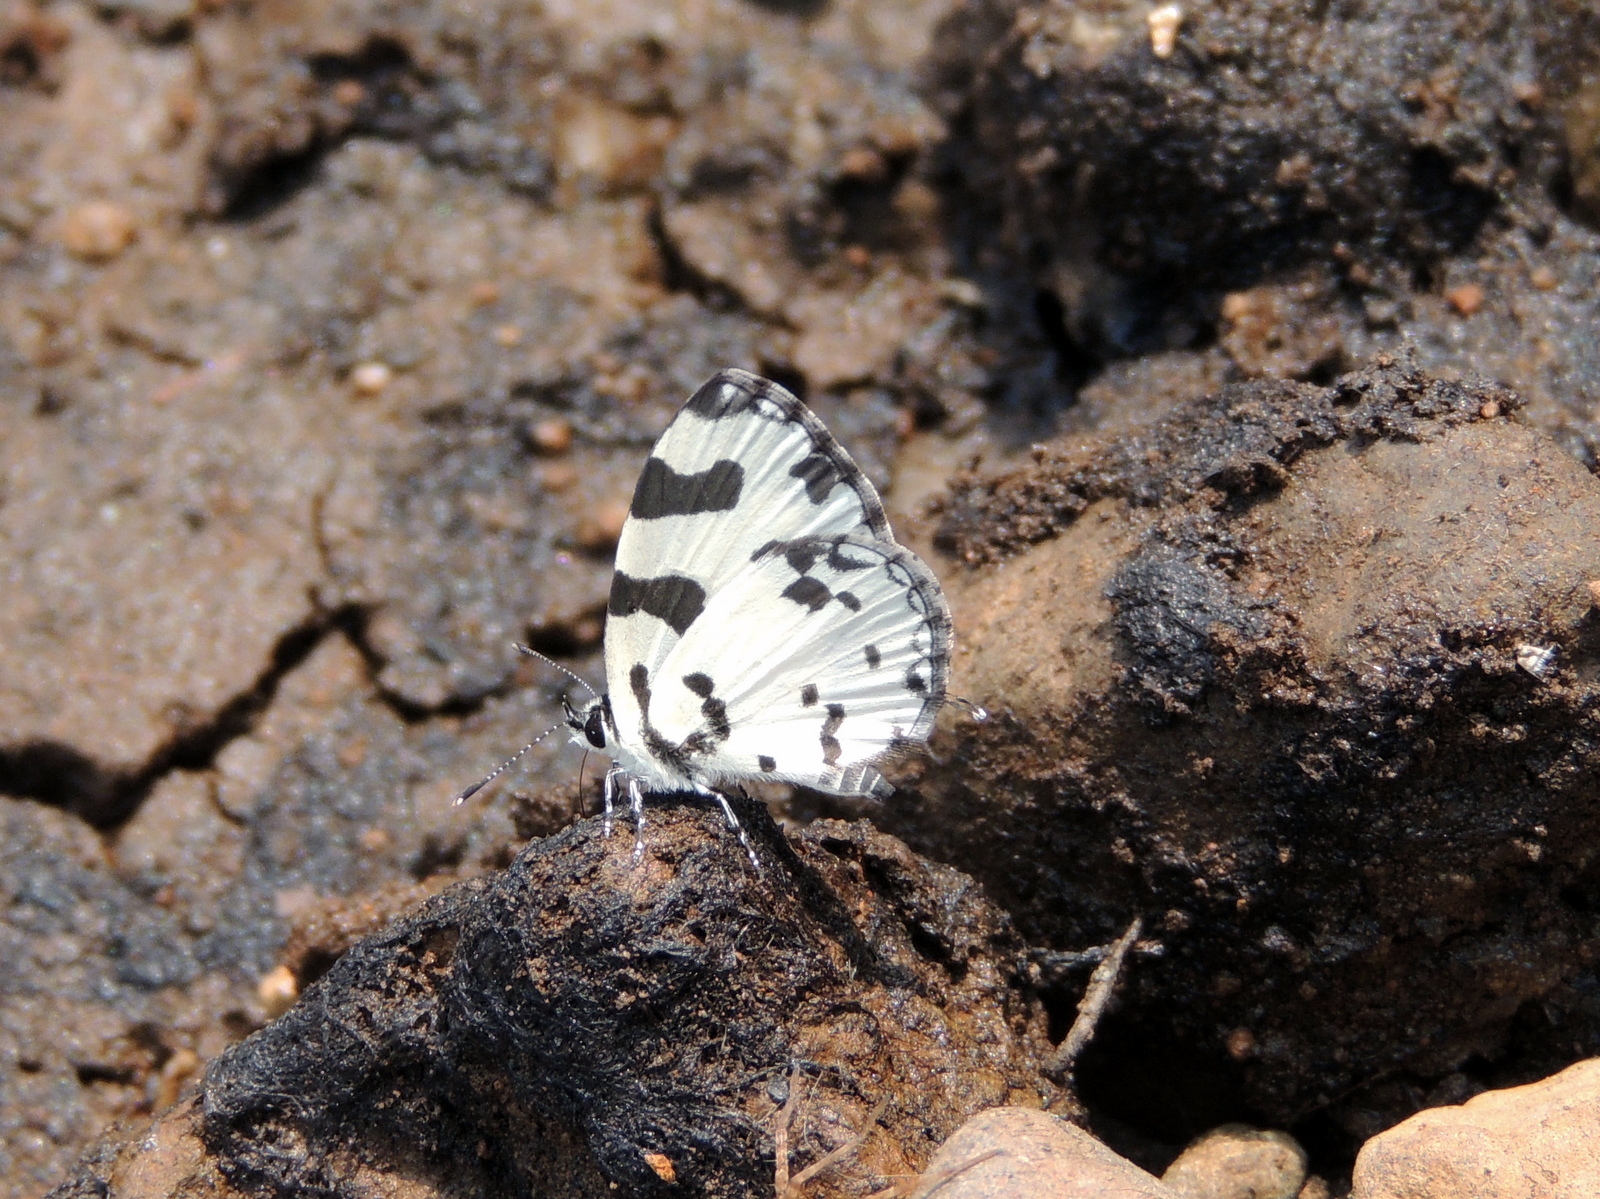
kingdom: Animalia
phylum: Arthropoda
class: Insecta
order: Lepidoptera
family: Lycaenidae
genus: Caleta
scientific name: Caleta decidia
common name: Angled pierrot
